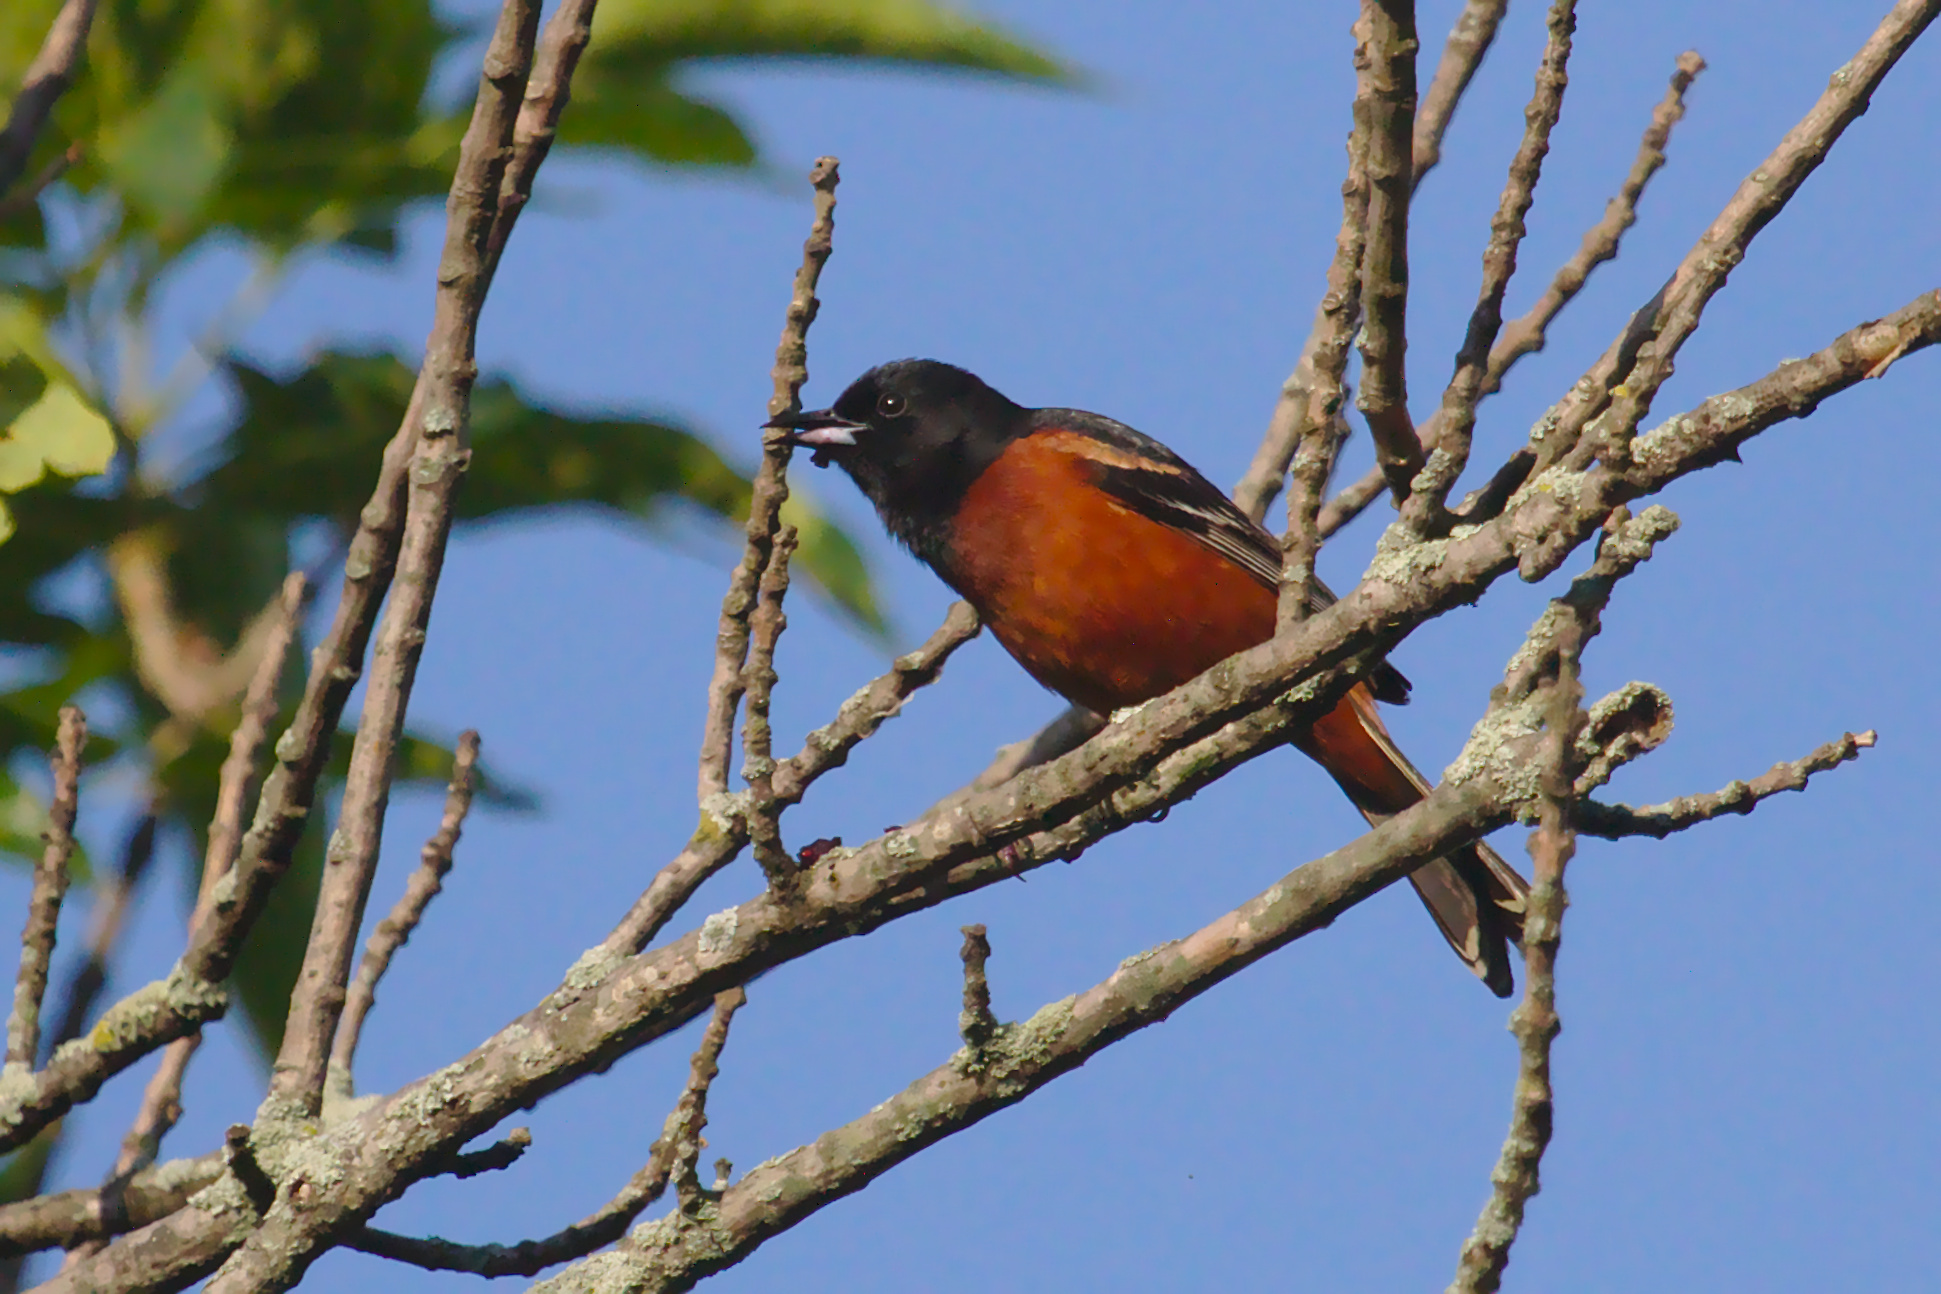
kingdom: Animalia
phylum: Chordata
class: Aves
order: Passeriformes
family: Icteridae
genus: Icterus
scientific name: Icterus spurius
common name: Orchard oriole
